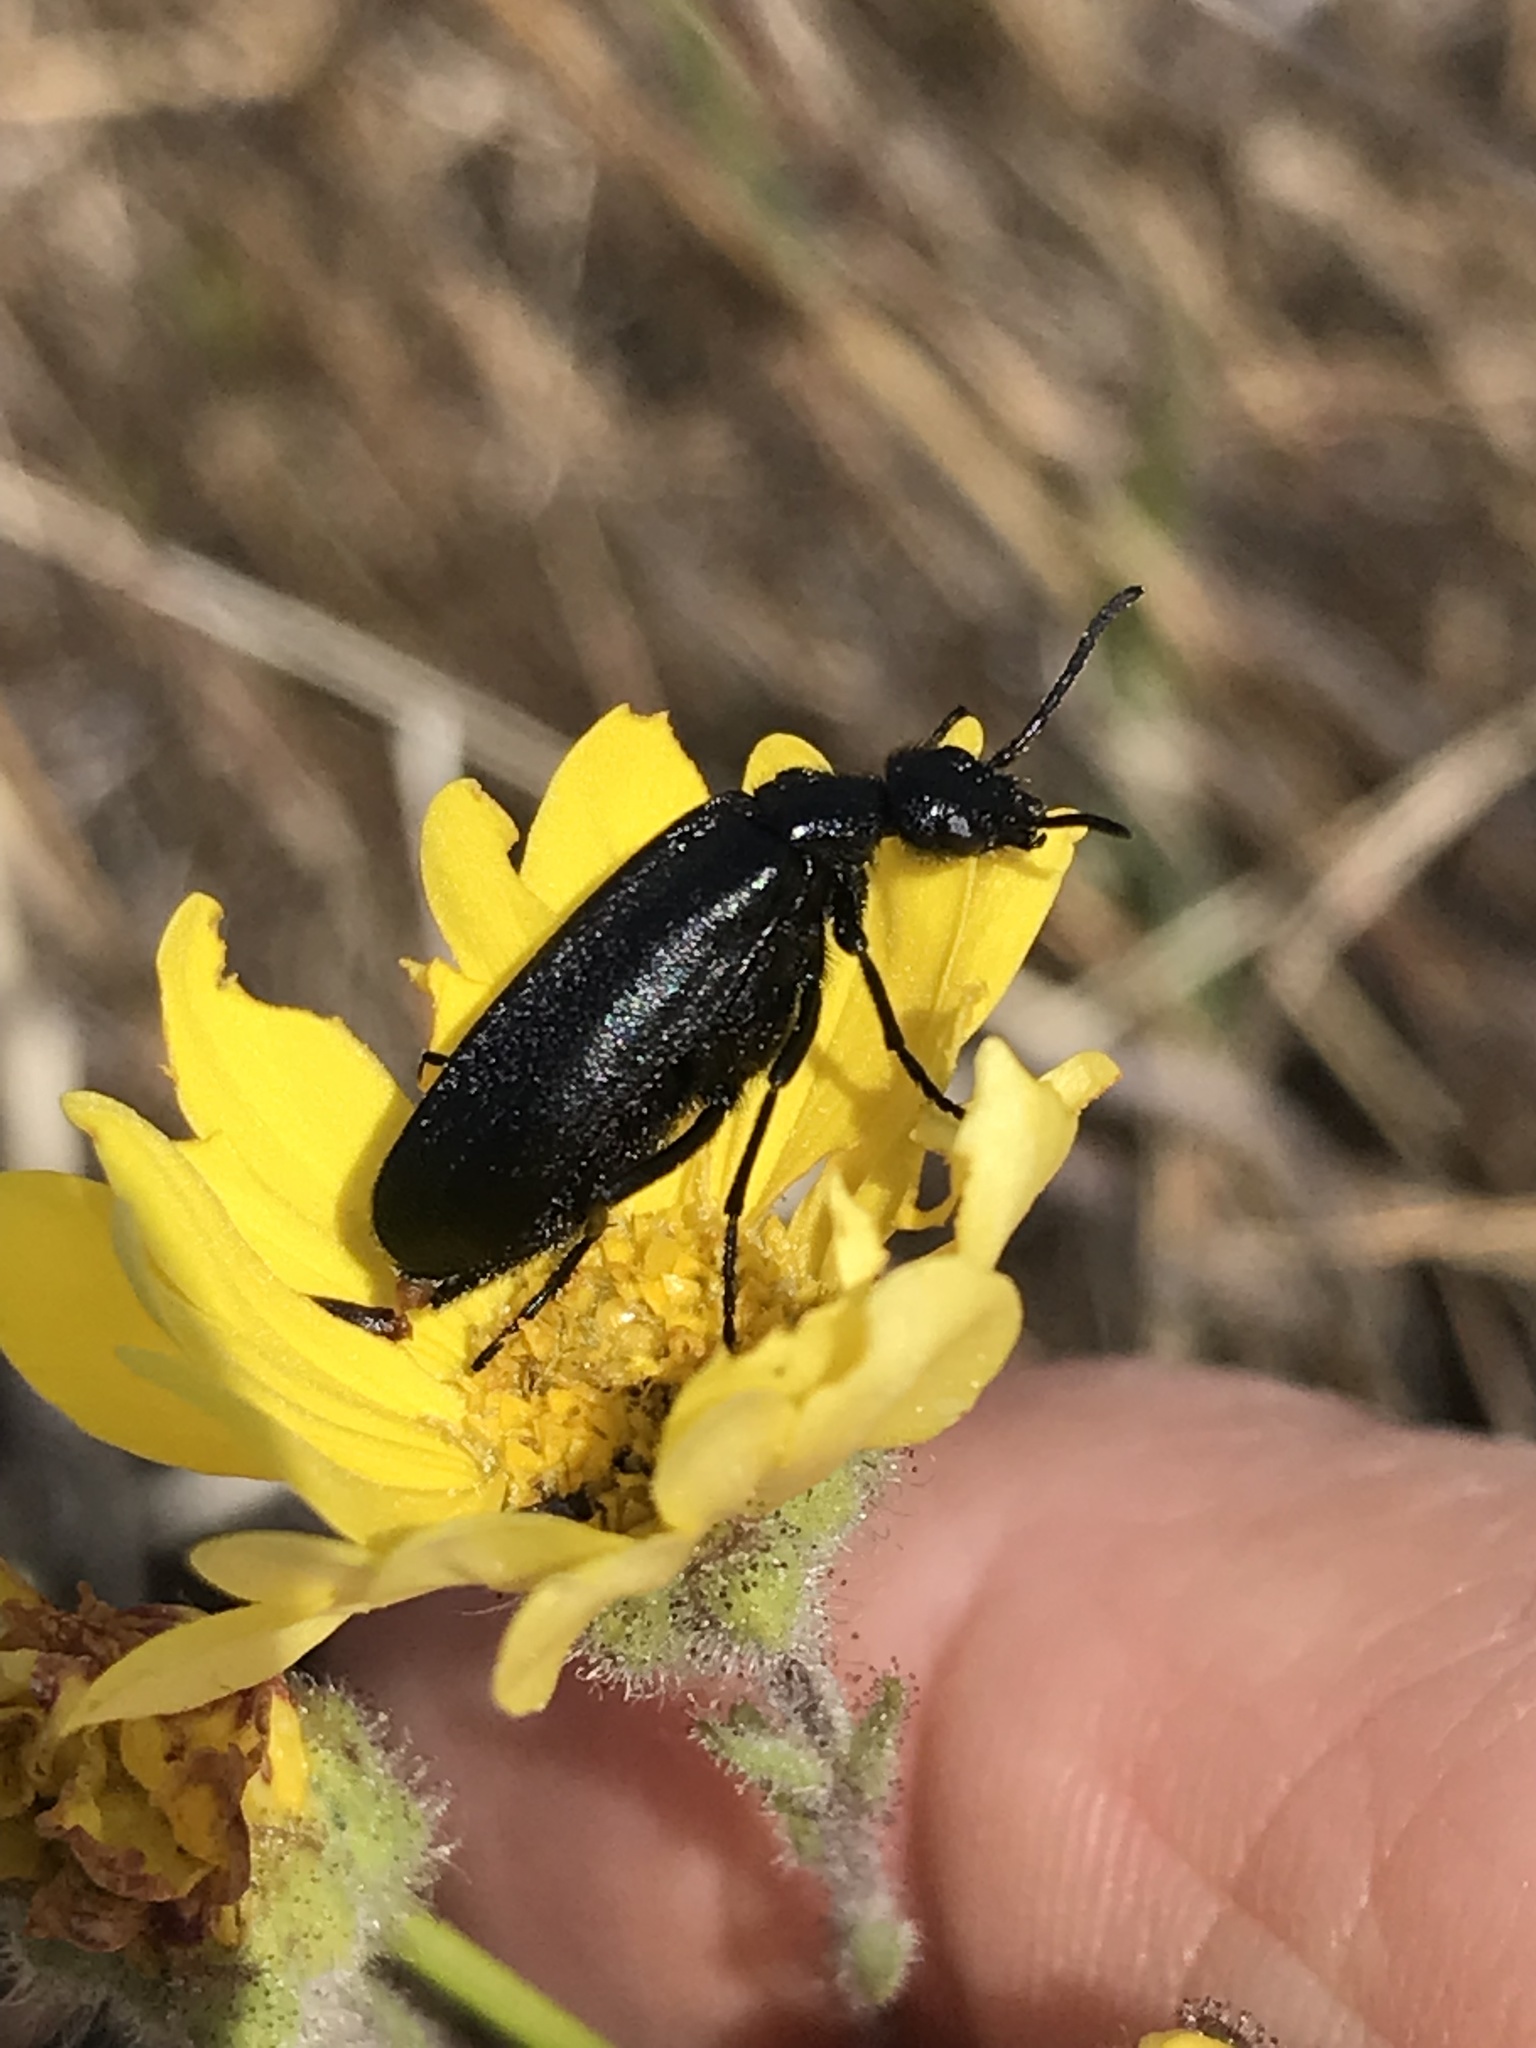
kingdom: Animalia
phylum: Arthropoda
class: Insecta
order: Coleoptera
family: Meloidae
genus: Epicauta
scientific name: Epicauta puncticollis
